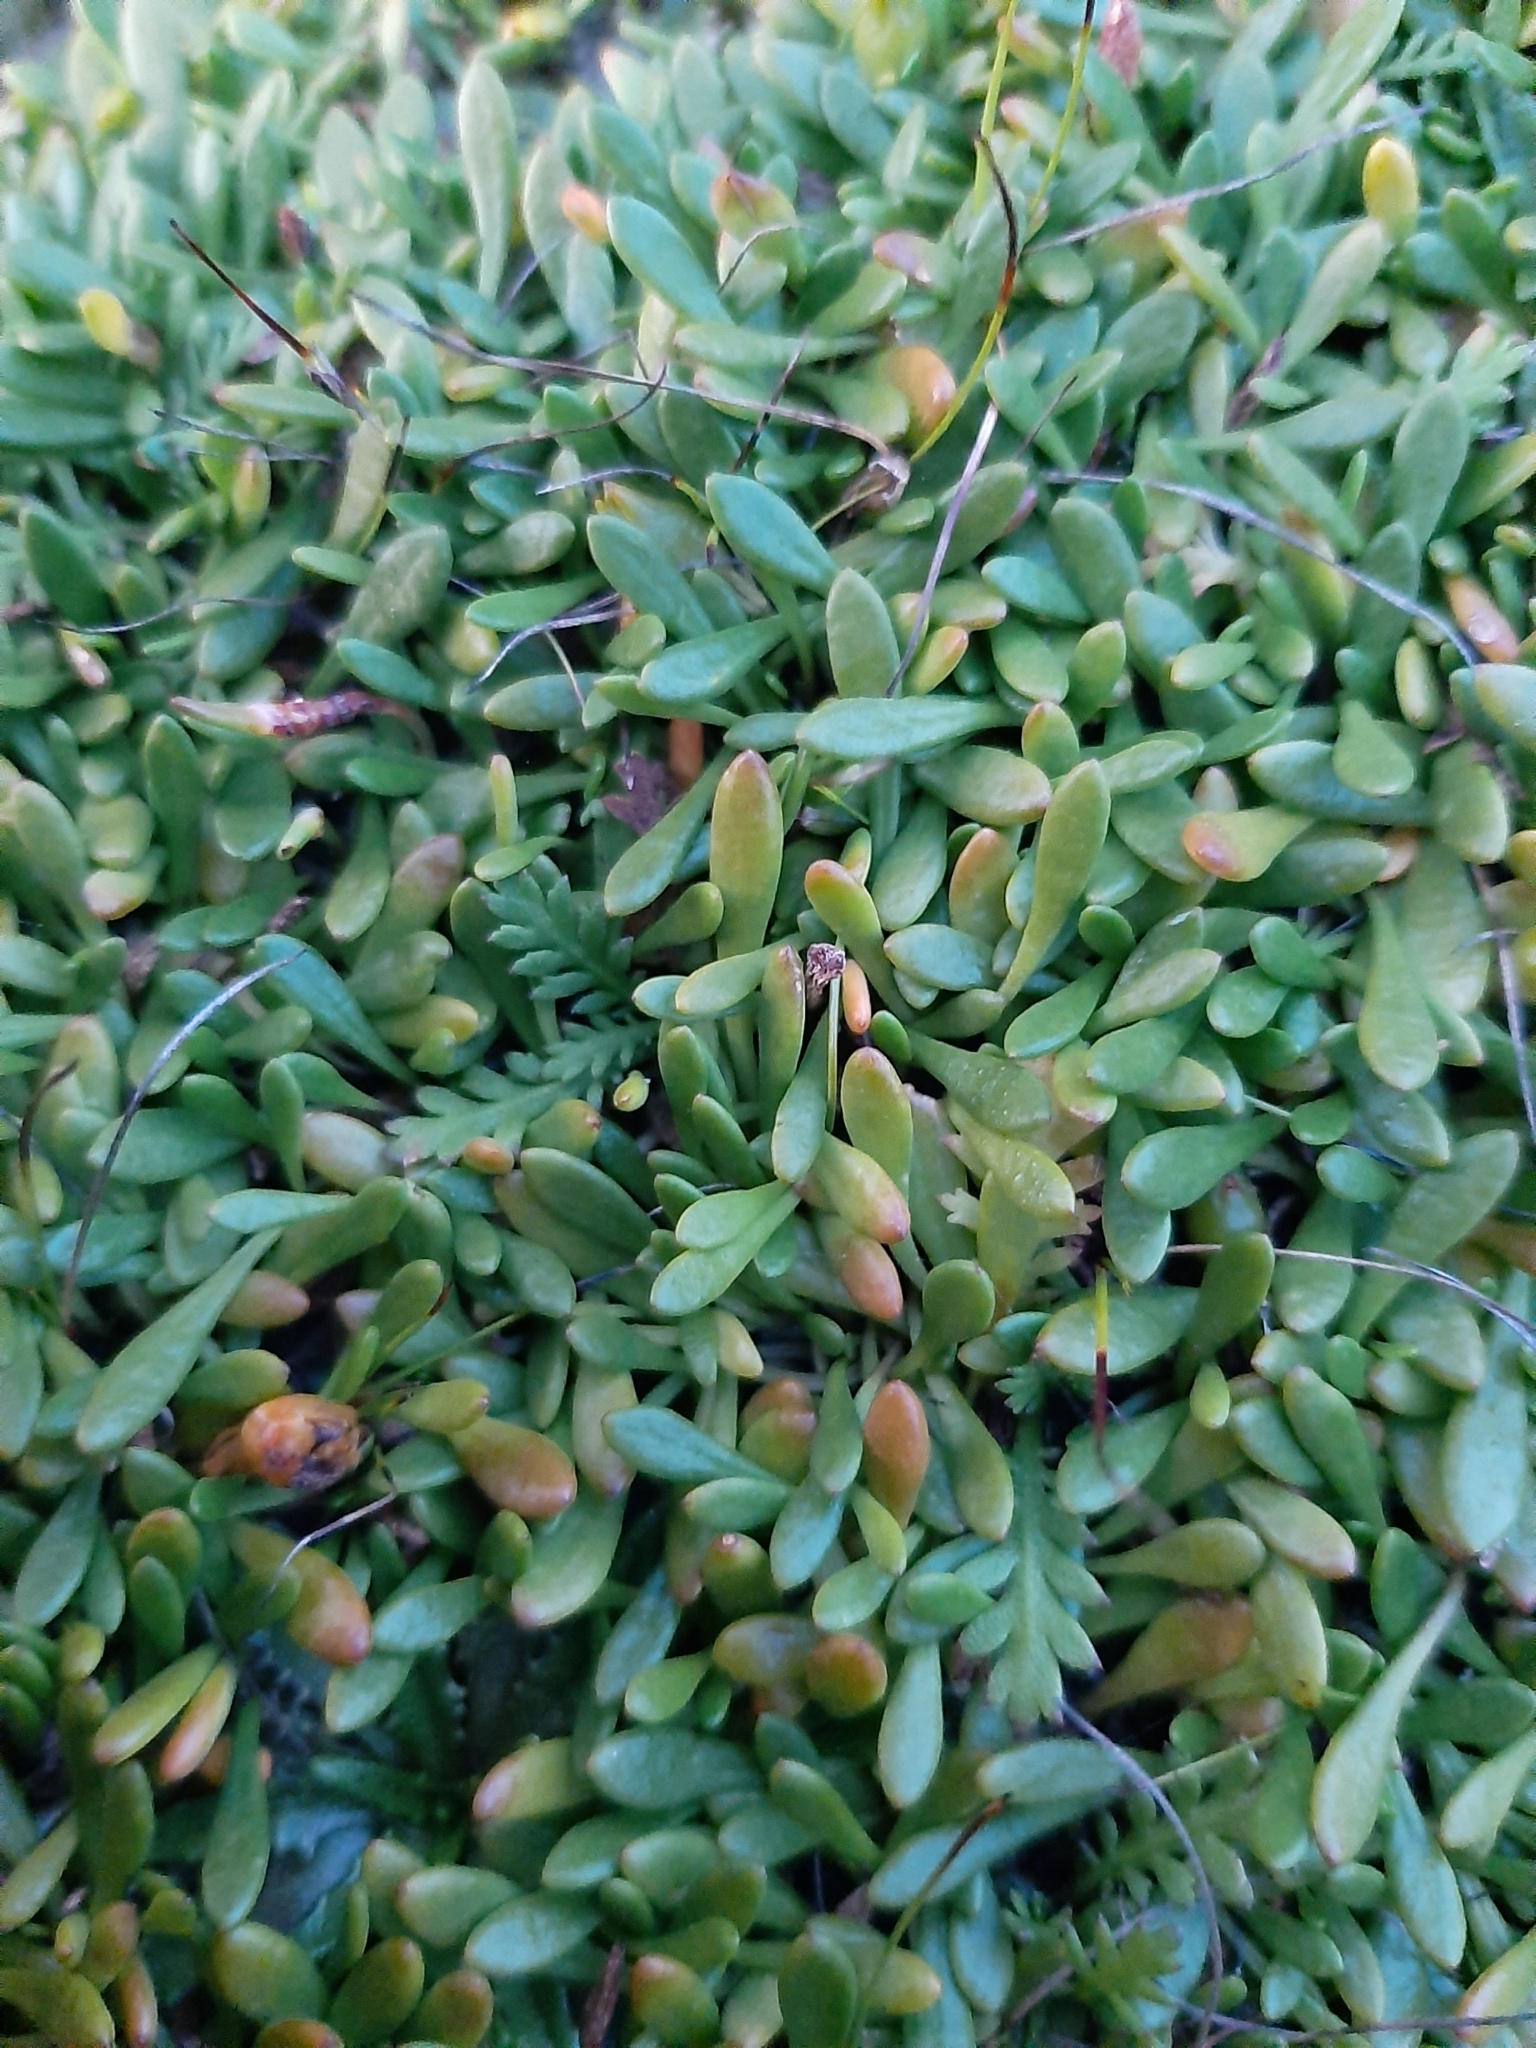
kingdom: Plantae
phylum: Tracheophyta
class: Magnoliopsida
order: Asterales
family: Goodeniaceae
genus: Goodenia
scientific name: Goodenia radicans
